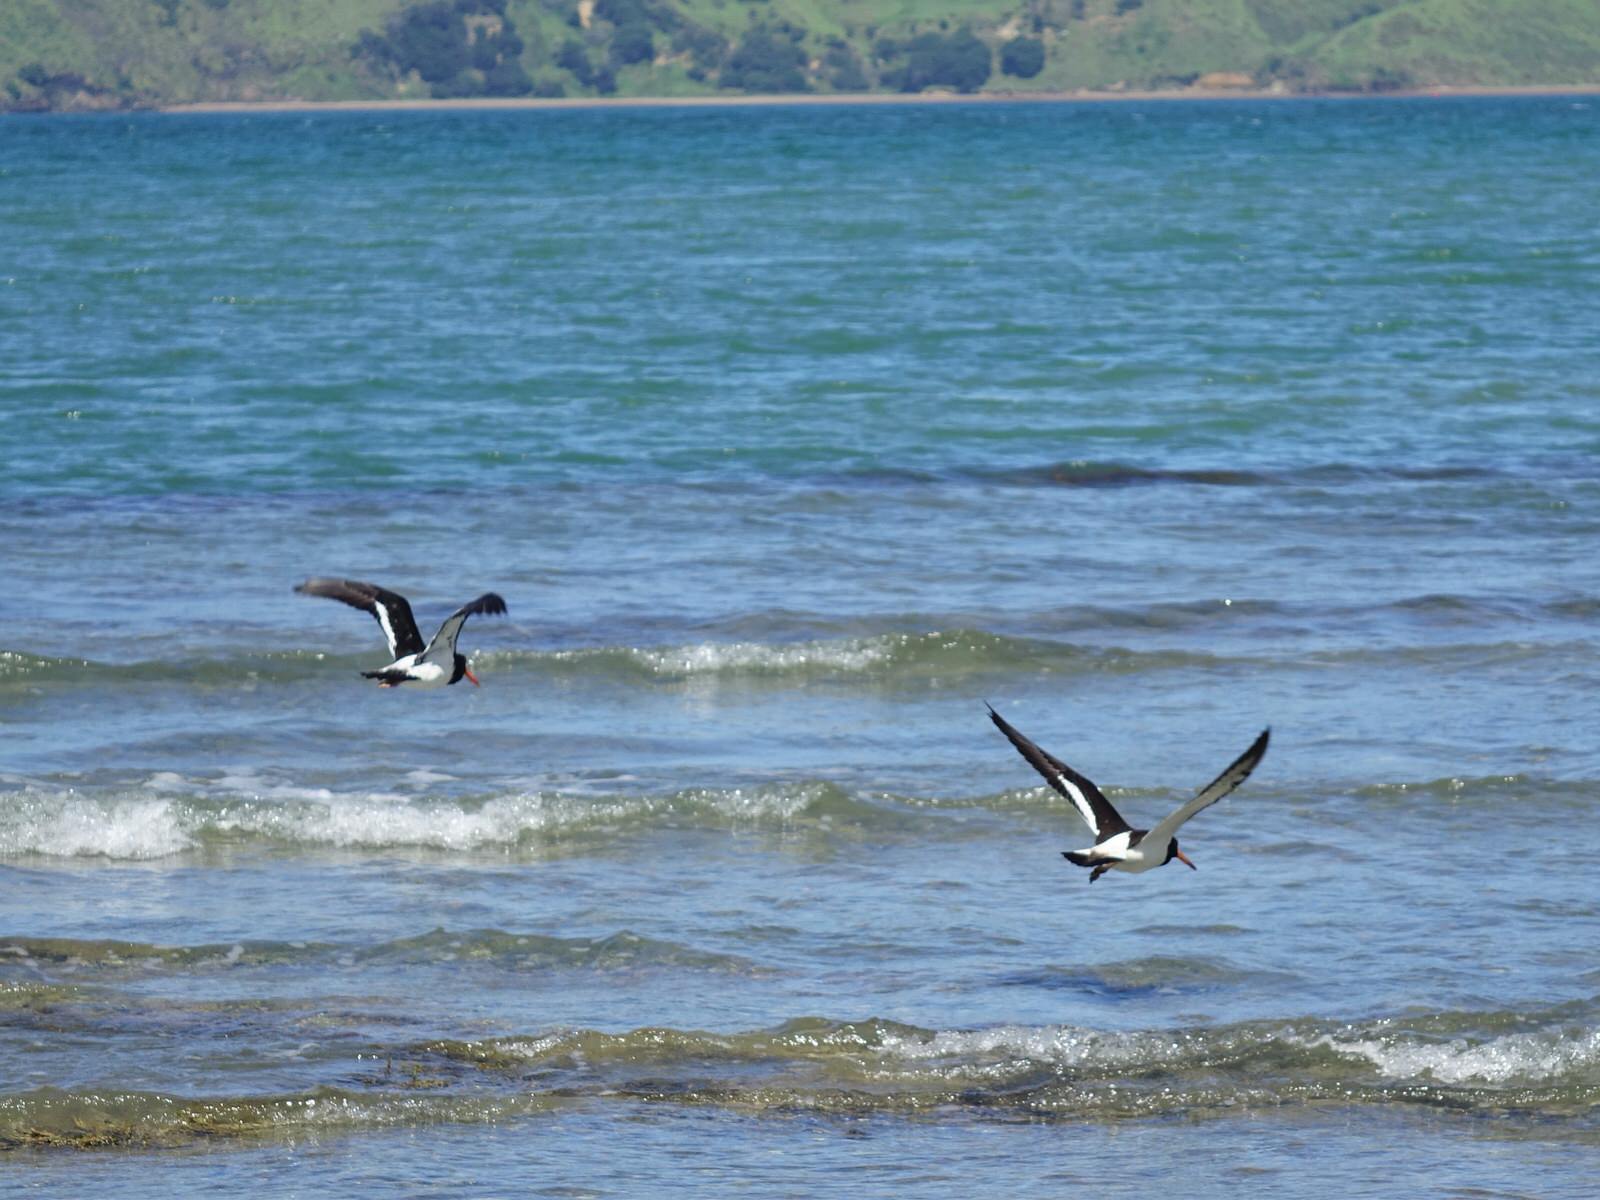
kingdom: Animalia
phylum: Chordata
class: Aves
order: Charadriiformes
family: Haematopodidae
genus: Haematopus
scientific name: Haematopus unicolor
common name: Variable oystercatcher
